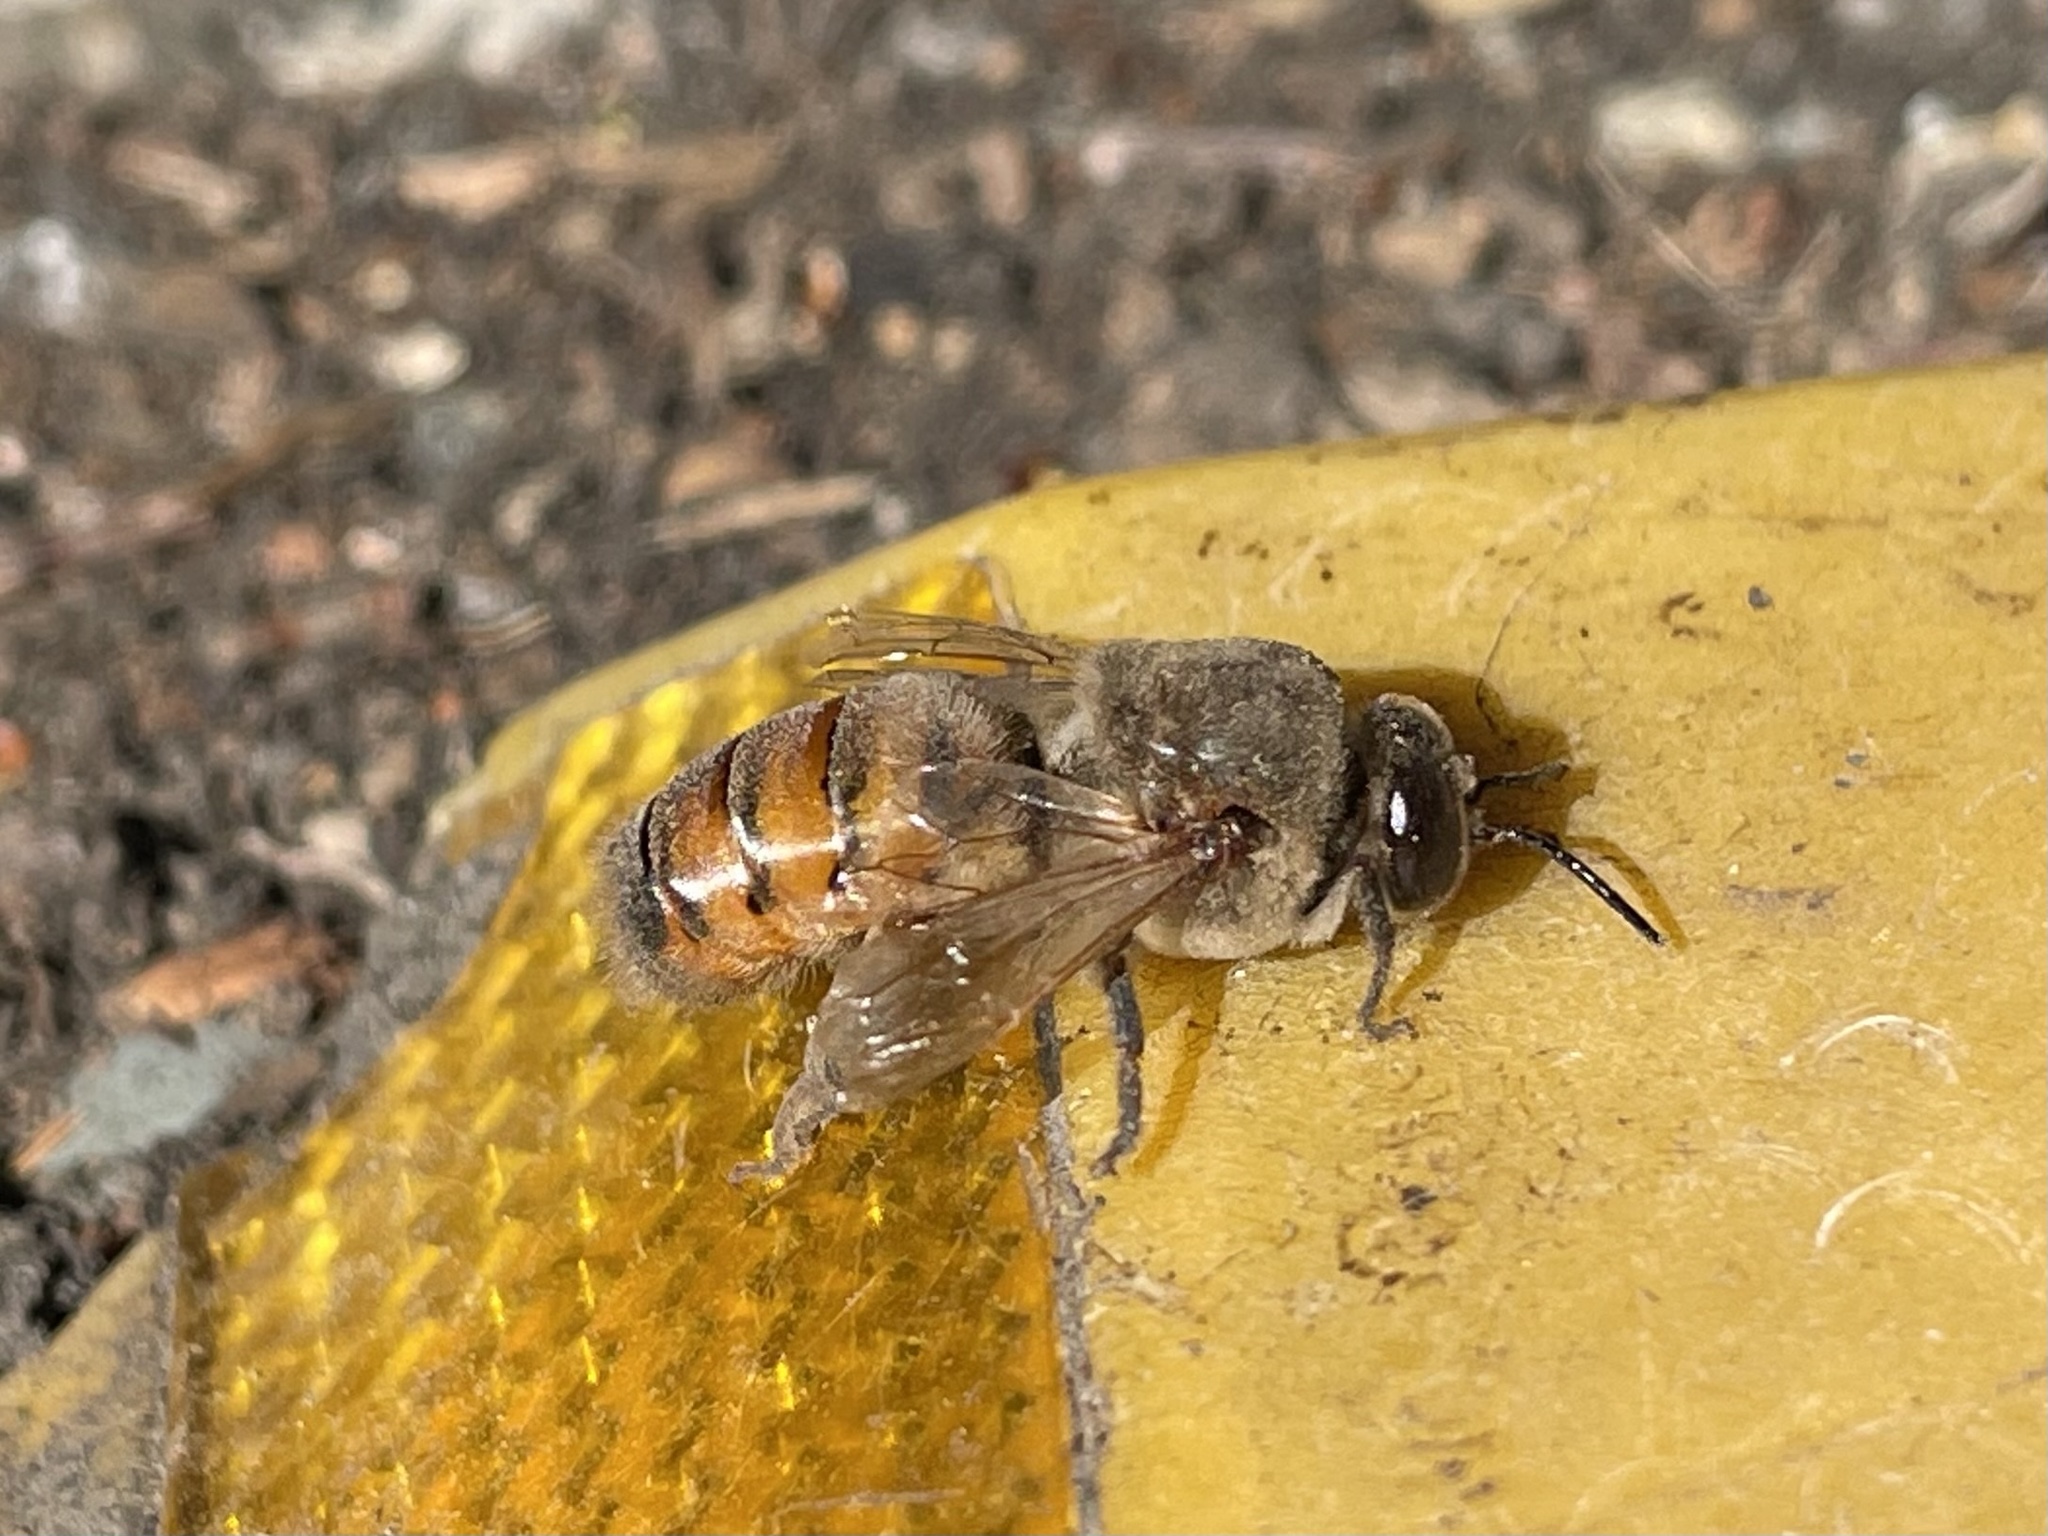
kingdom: Animalia
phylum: Arthropoda
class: Insecta
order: Hymenoptera
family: Apidae
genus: Apis
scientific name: Apis mellifera
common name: Honey bee
